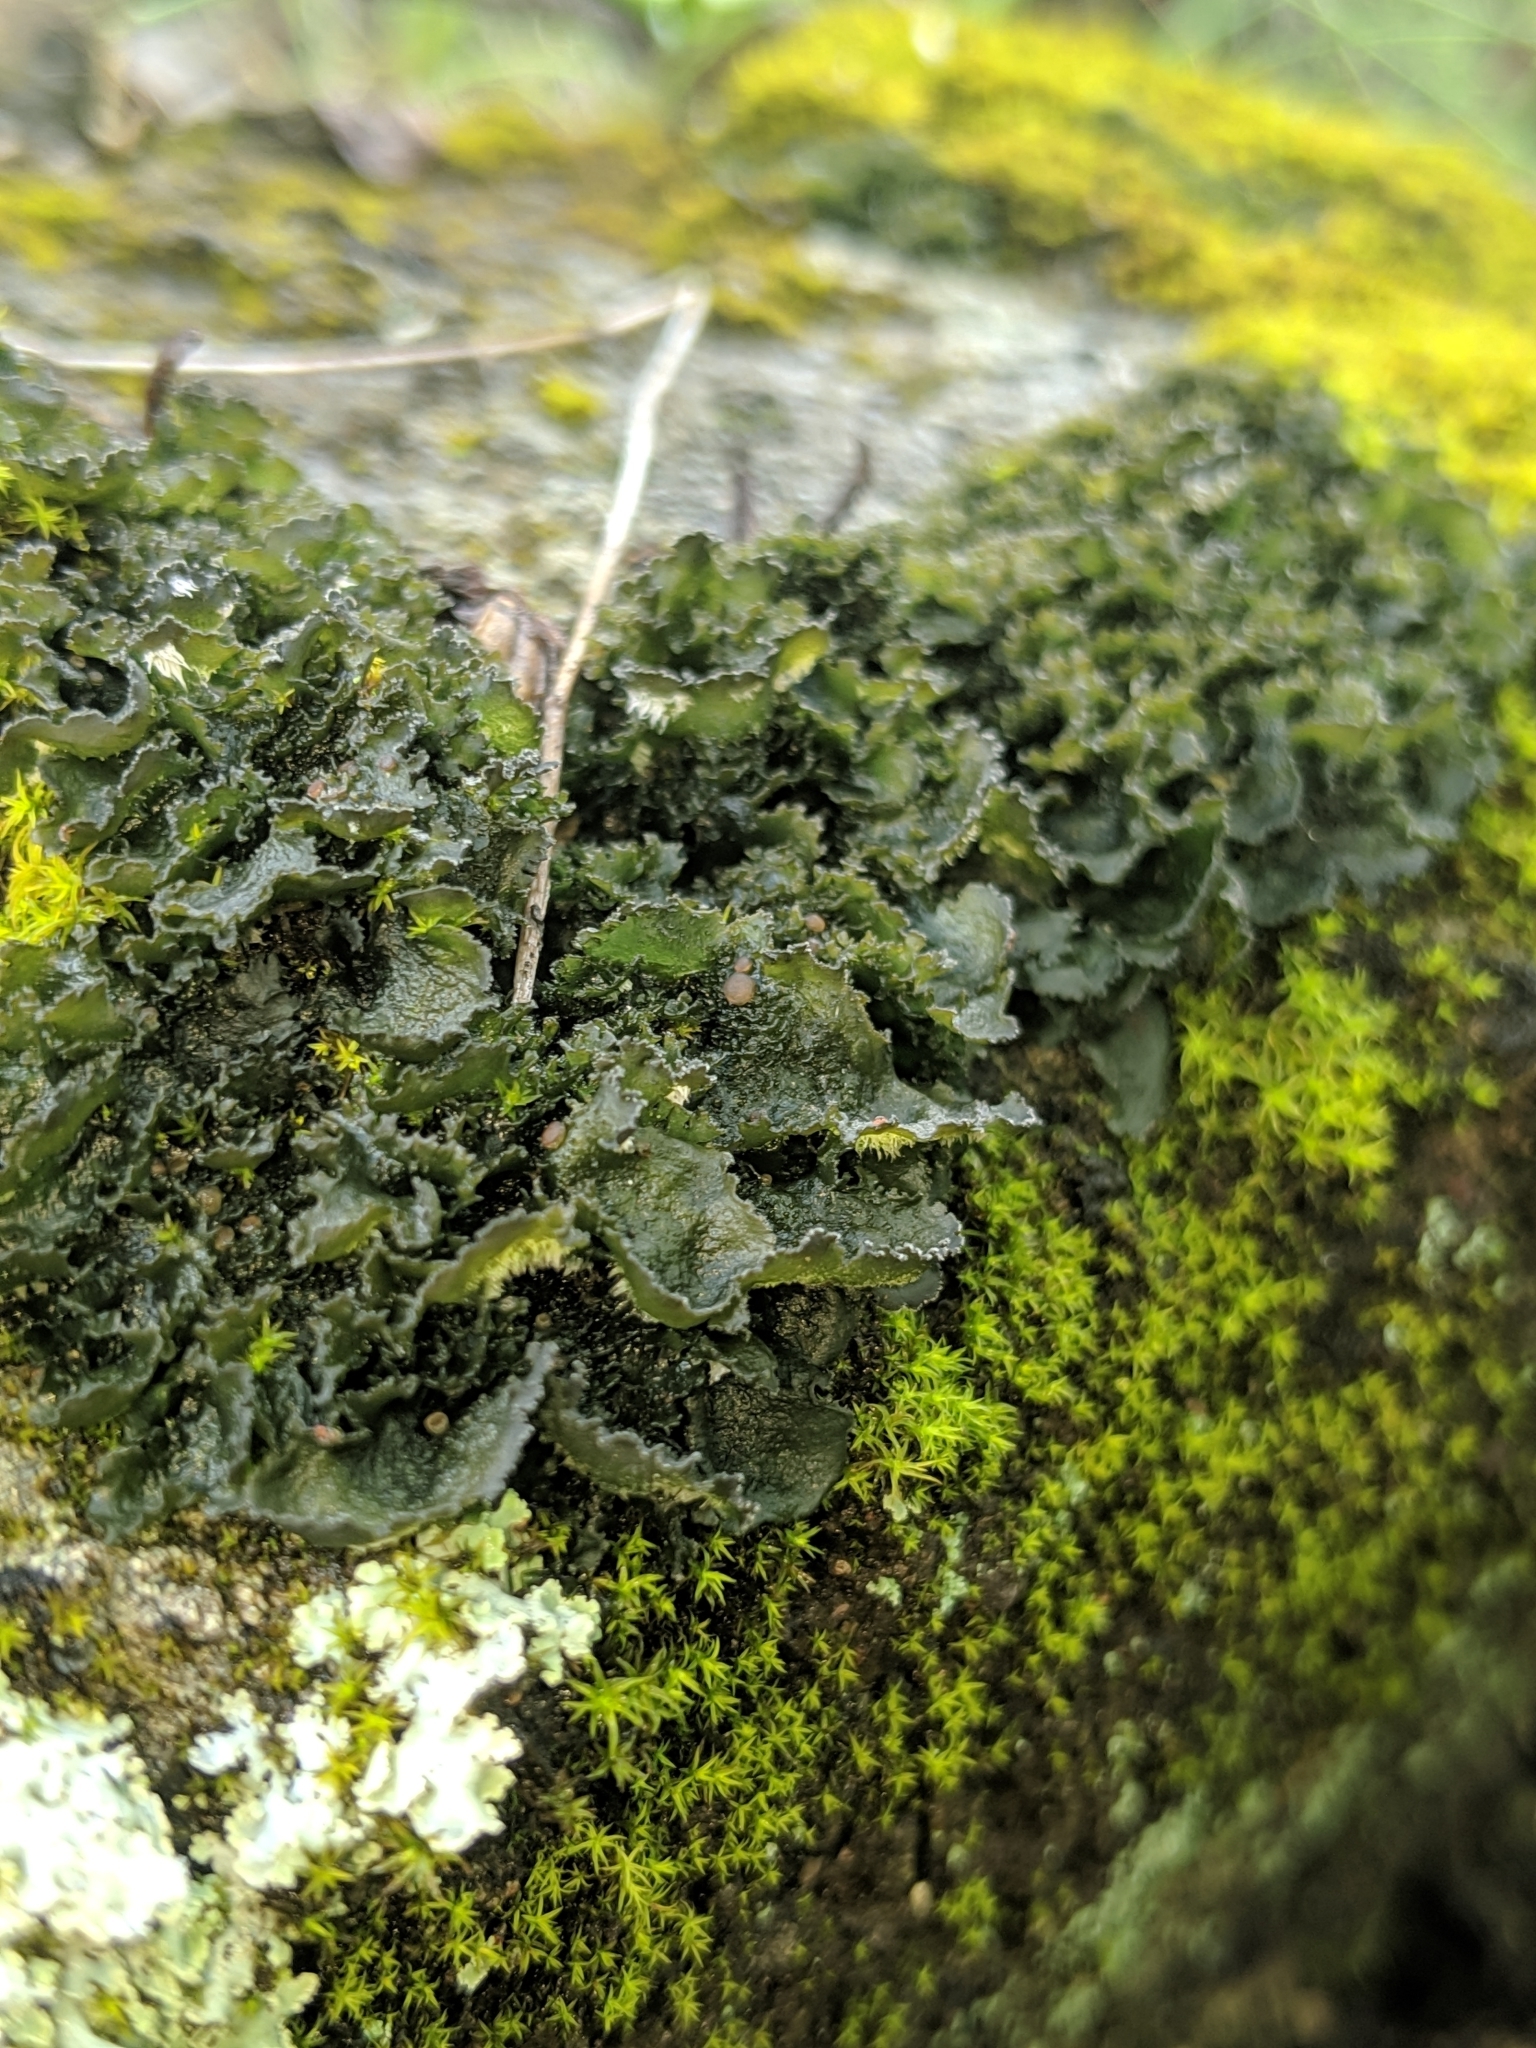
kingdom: Fungi
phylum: Ascomycota
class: Lecanoromycetes
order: Peltigerales
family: Massalongiaceae
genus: Leptochidium
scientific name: Leptochidium albociliatum
